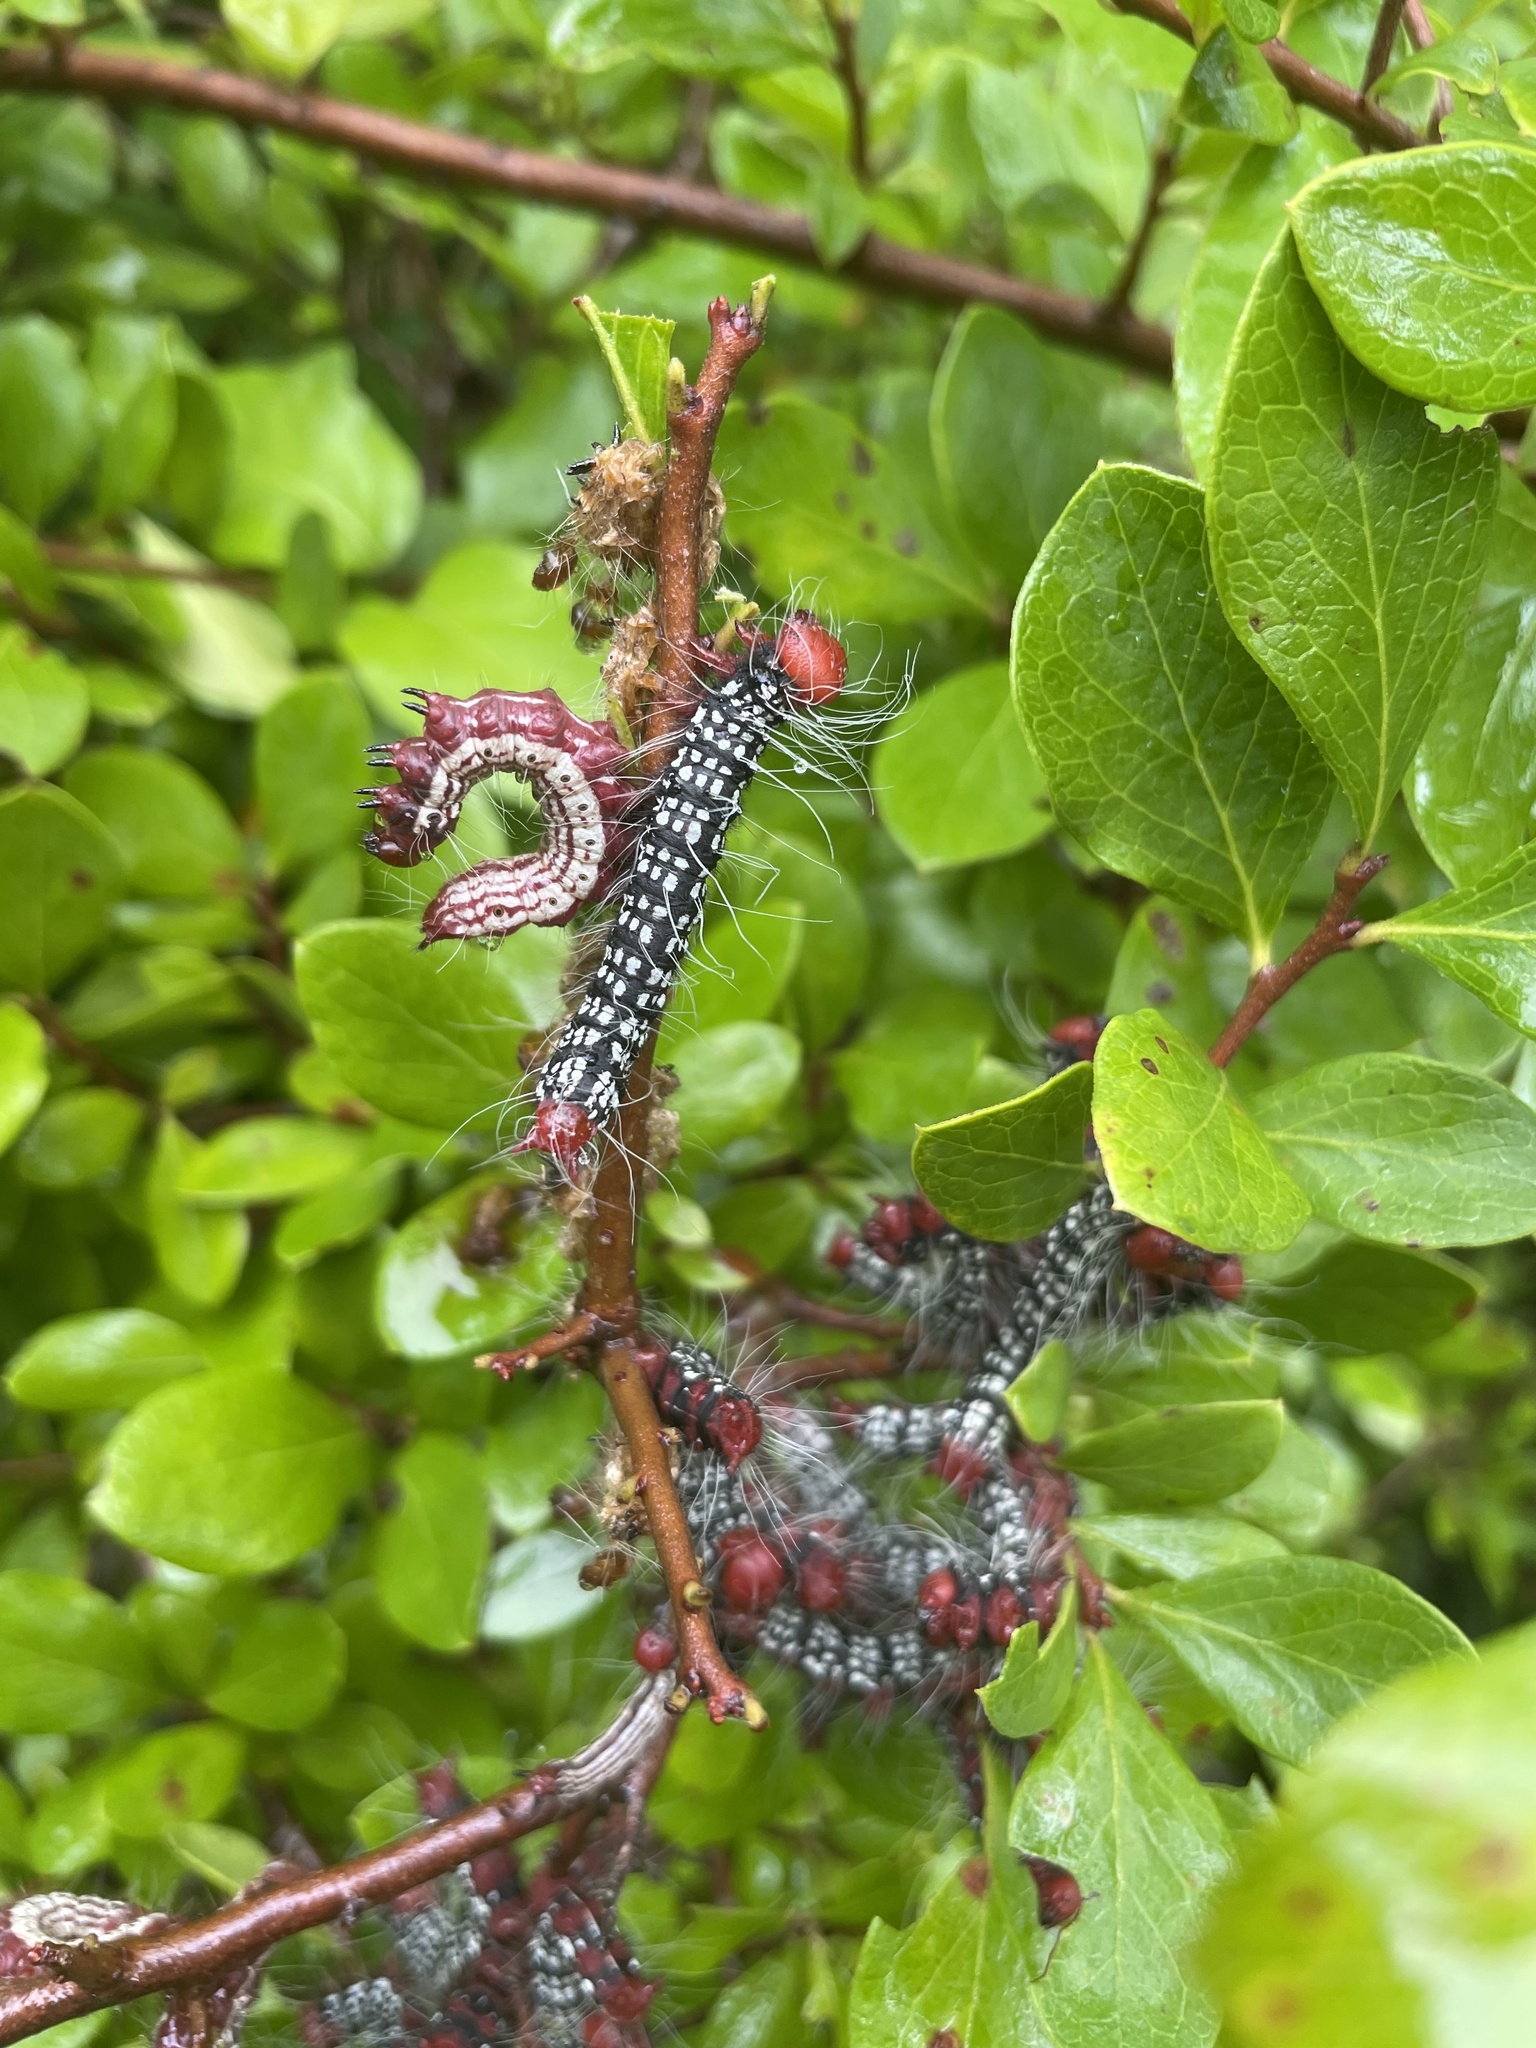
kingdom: Animalia
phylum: Arthropoda
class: Insecta
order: Lepidoptera
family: Notodontidae
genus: Datana
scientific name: Datana major
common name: Azalea caterpillar
